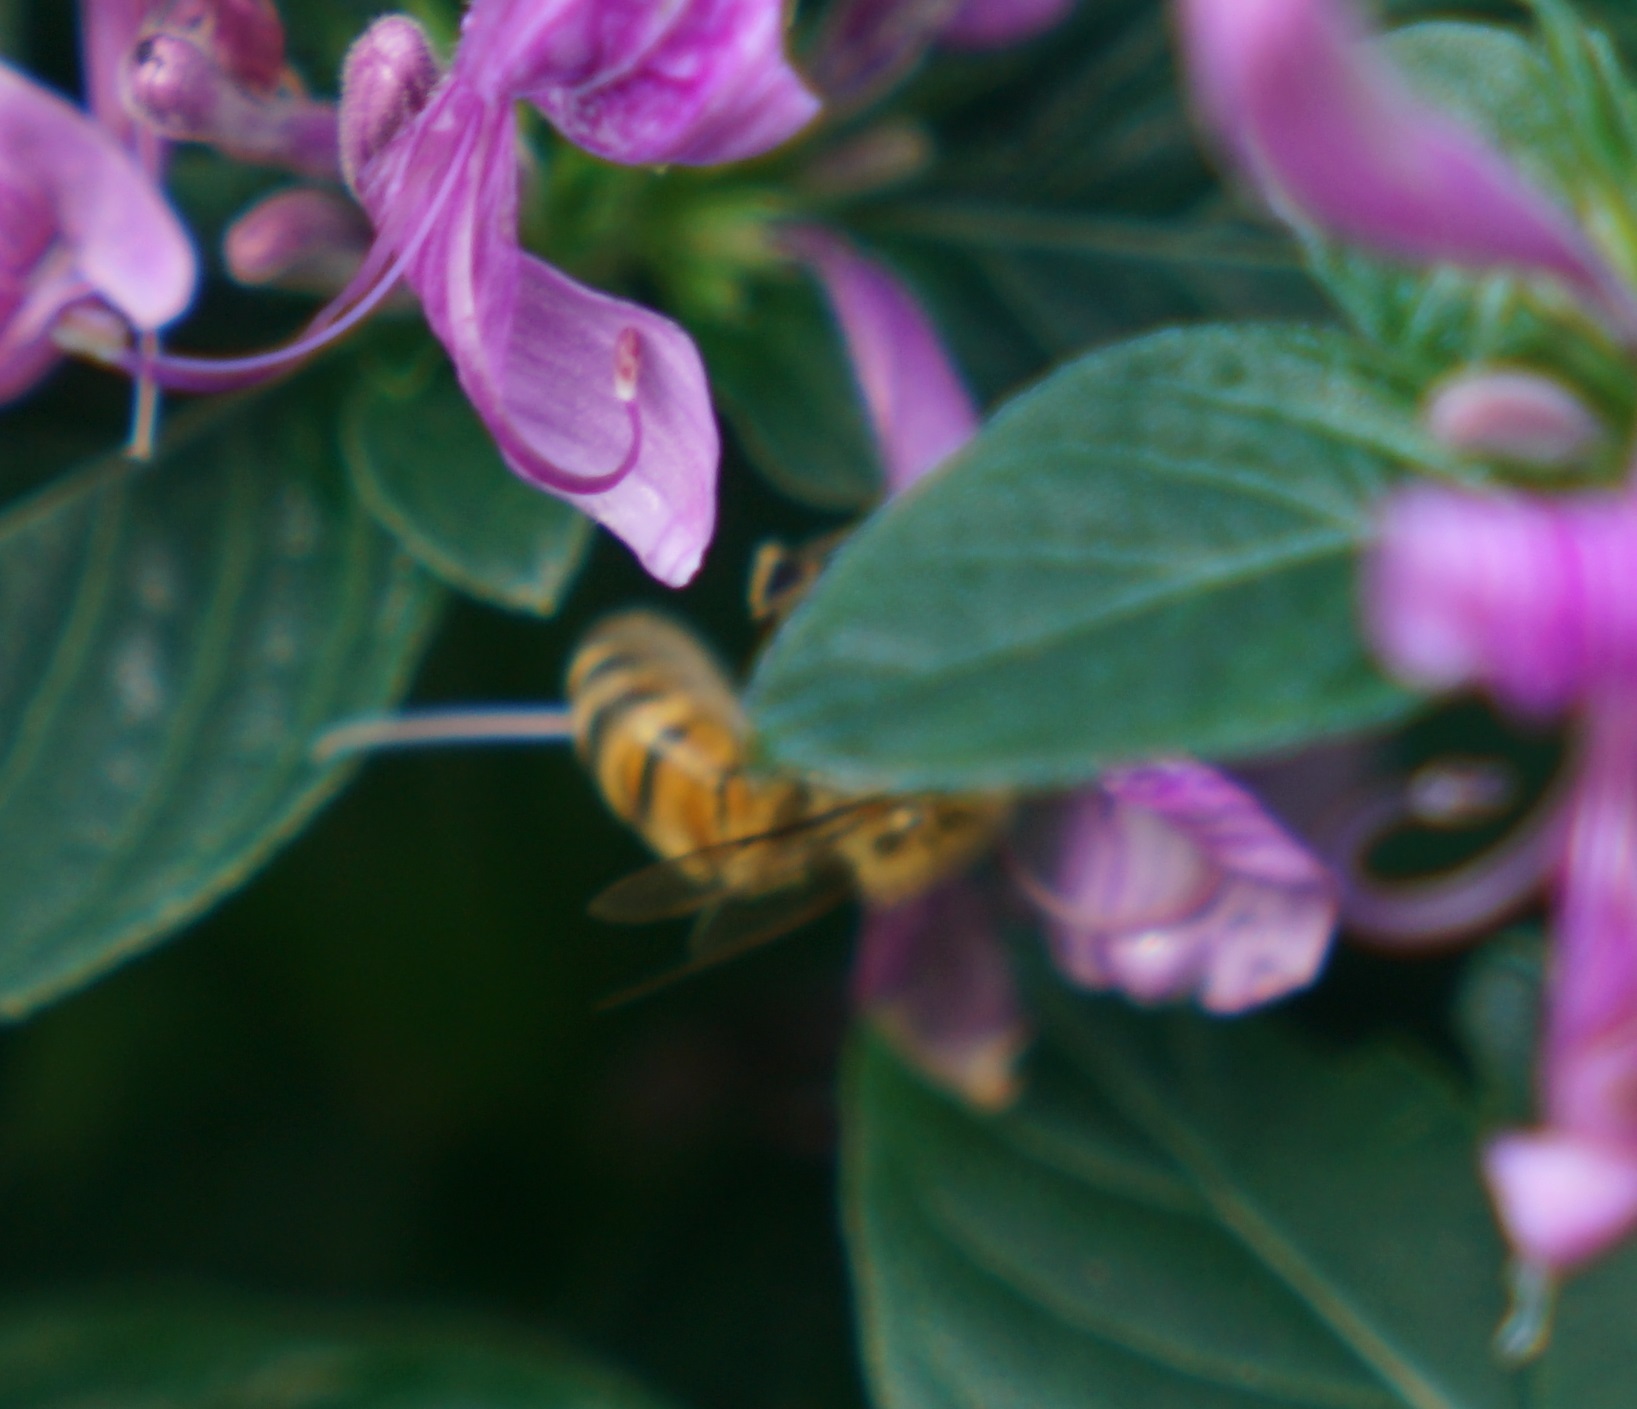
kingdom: Animalia
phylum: Arthropoda
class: Insecta
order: Hymenoptera
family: Apidae
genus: Apis
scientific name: Apis mellifera
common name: Honey bee
